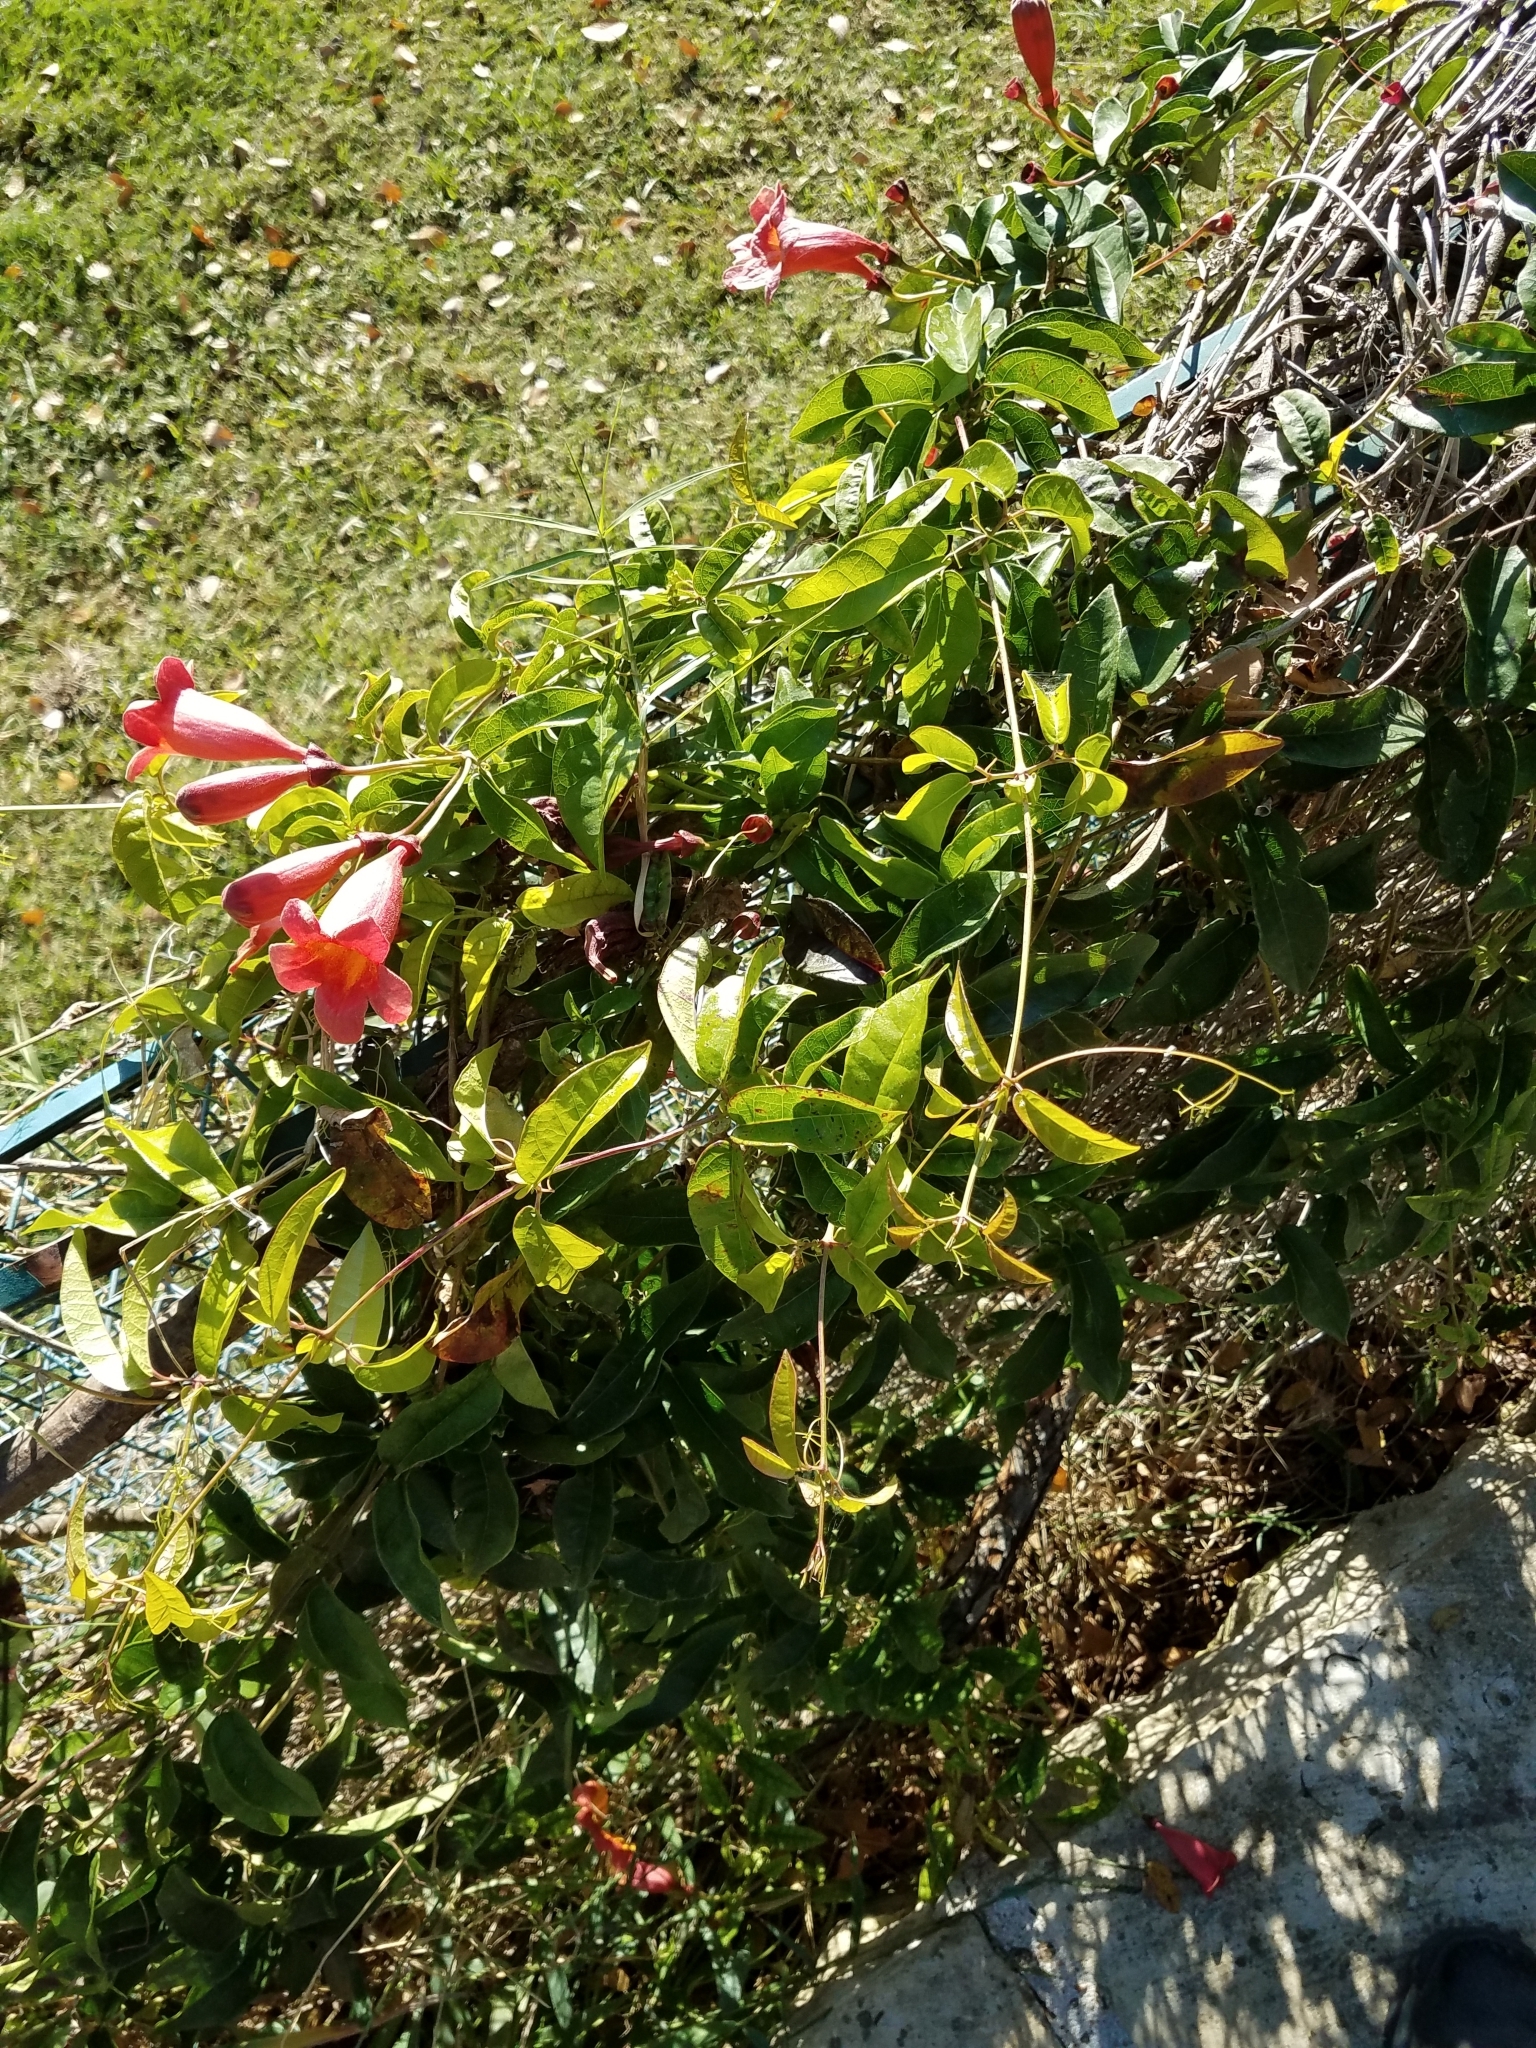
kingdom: Plantae
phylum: Tracheophyta
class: Magnoliopsida
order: Lamiales
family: Bignoniaceae
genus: Bignonia
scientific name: Bignonia capreolata
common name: Crossvine
